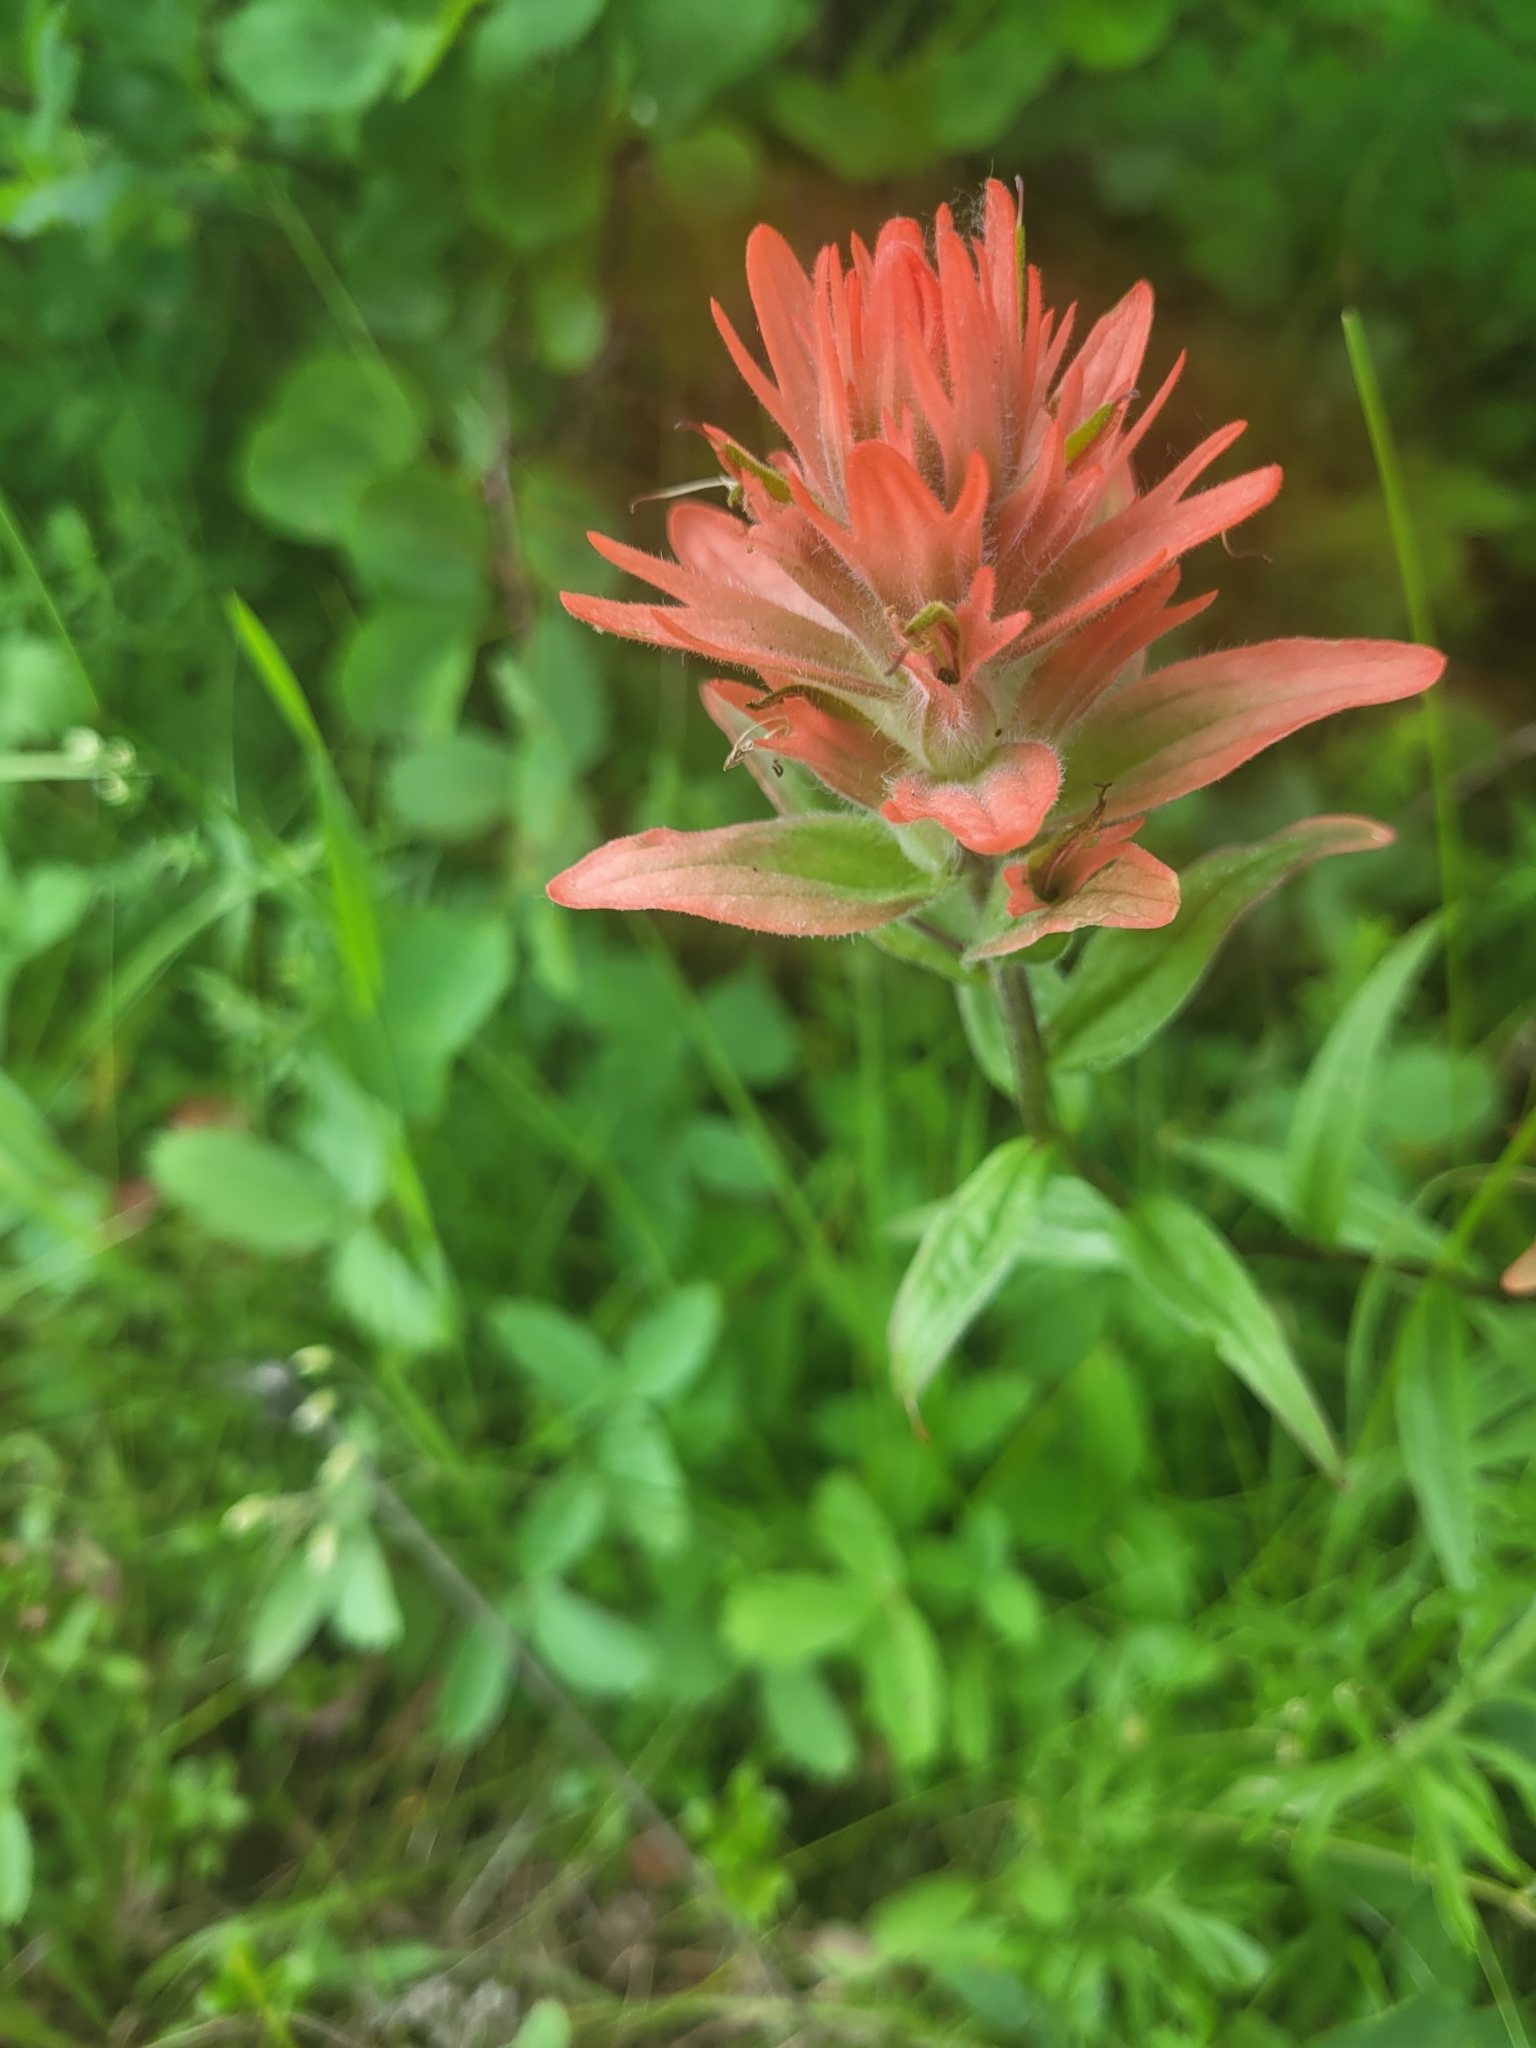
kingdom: Plantae
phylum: Tracheophyta
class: Magnoliopsida
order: Lamiales
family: Orobanchaceae
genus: Castilleja
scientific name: Castilleja miniata
